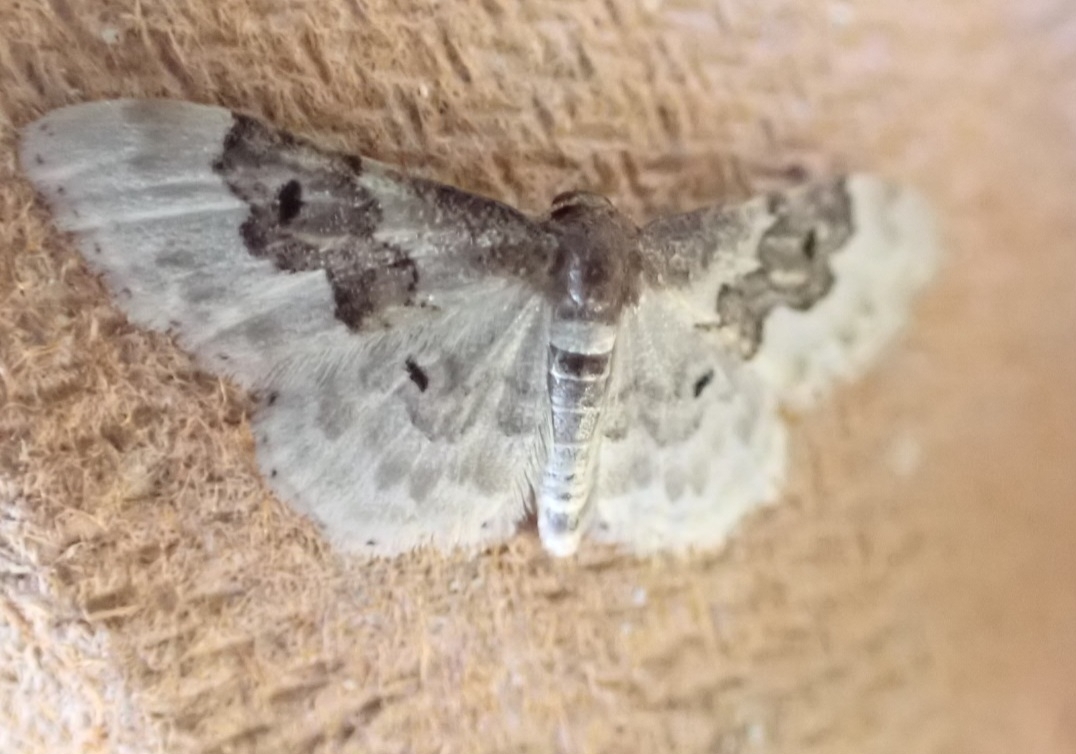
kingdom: Animalia
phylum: Arthropoda
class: Insecta
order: Lepidoptera
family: Geometridae
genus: Idaea
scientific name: Idaea rusticata
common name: Least carpet
